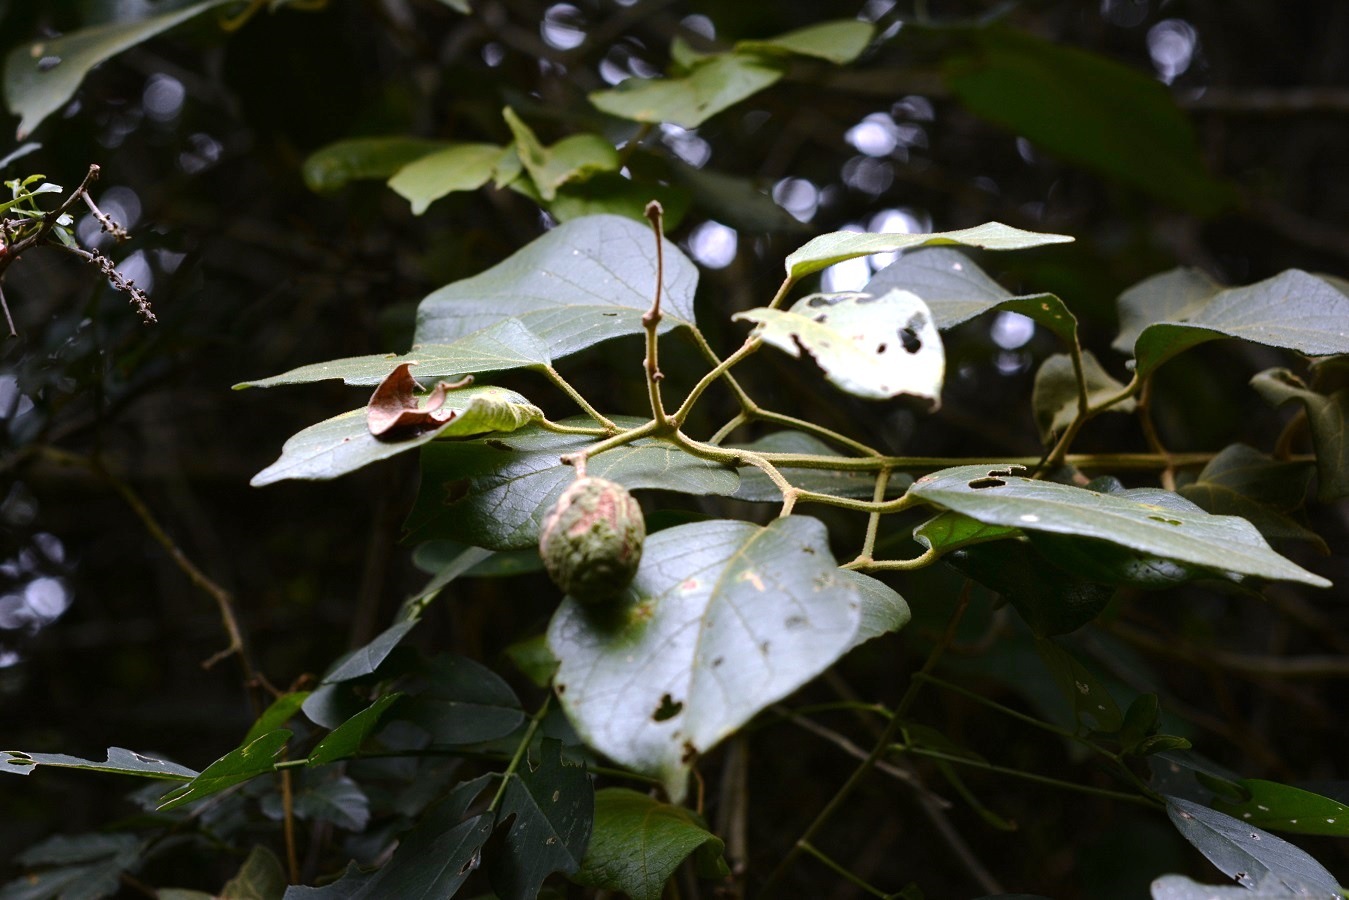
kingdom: Plantae
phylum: Tracheophyta
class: Magnoliopsida
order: Lamiales
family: Bignoniaceae
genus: Amphilophium
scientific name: Amphilophium paniculatum
